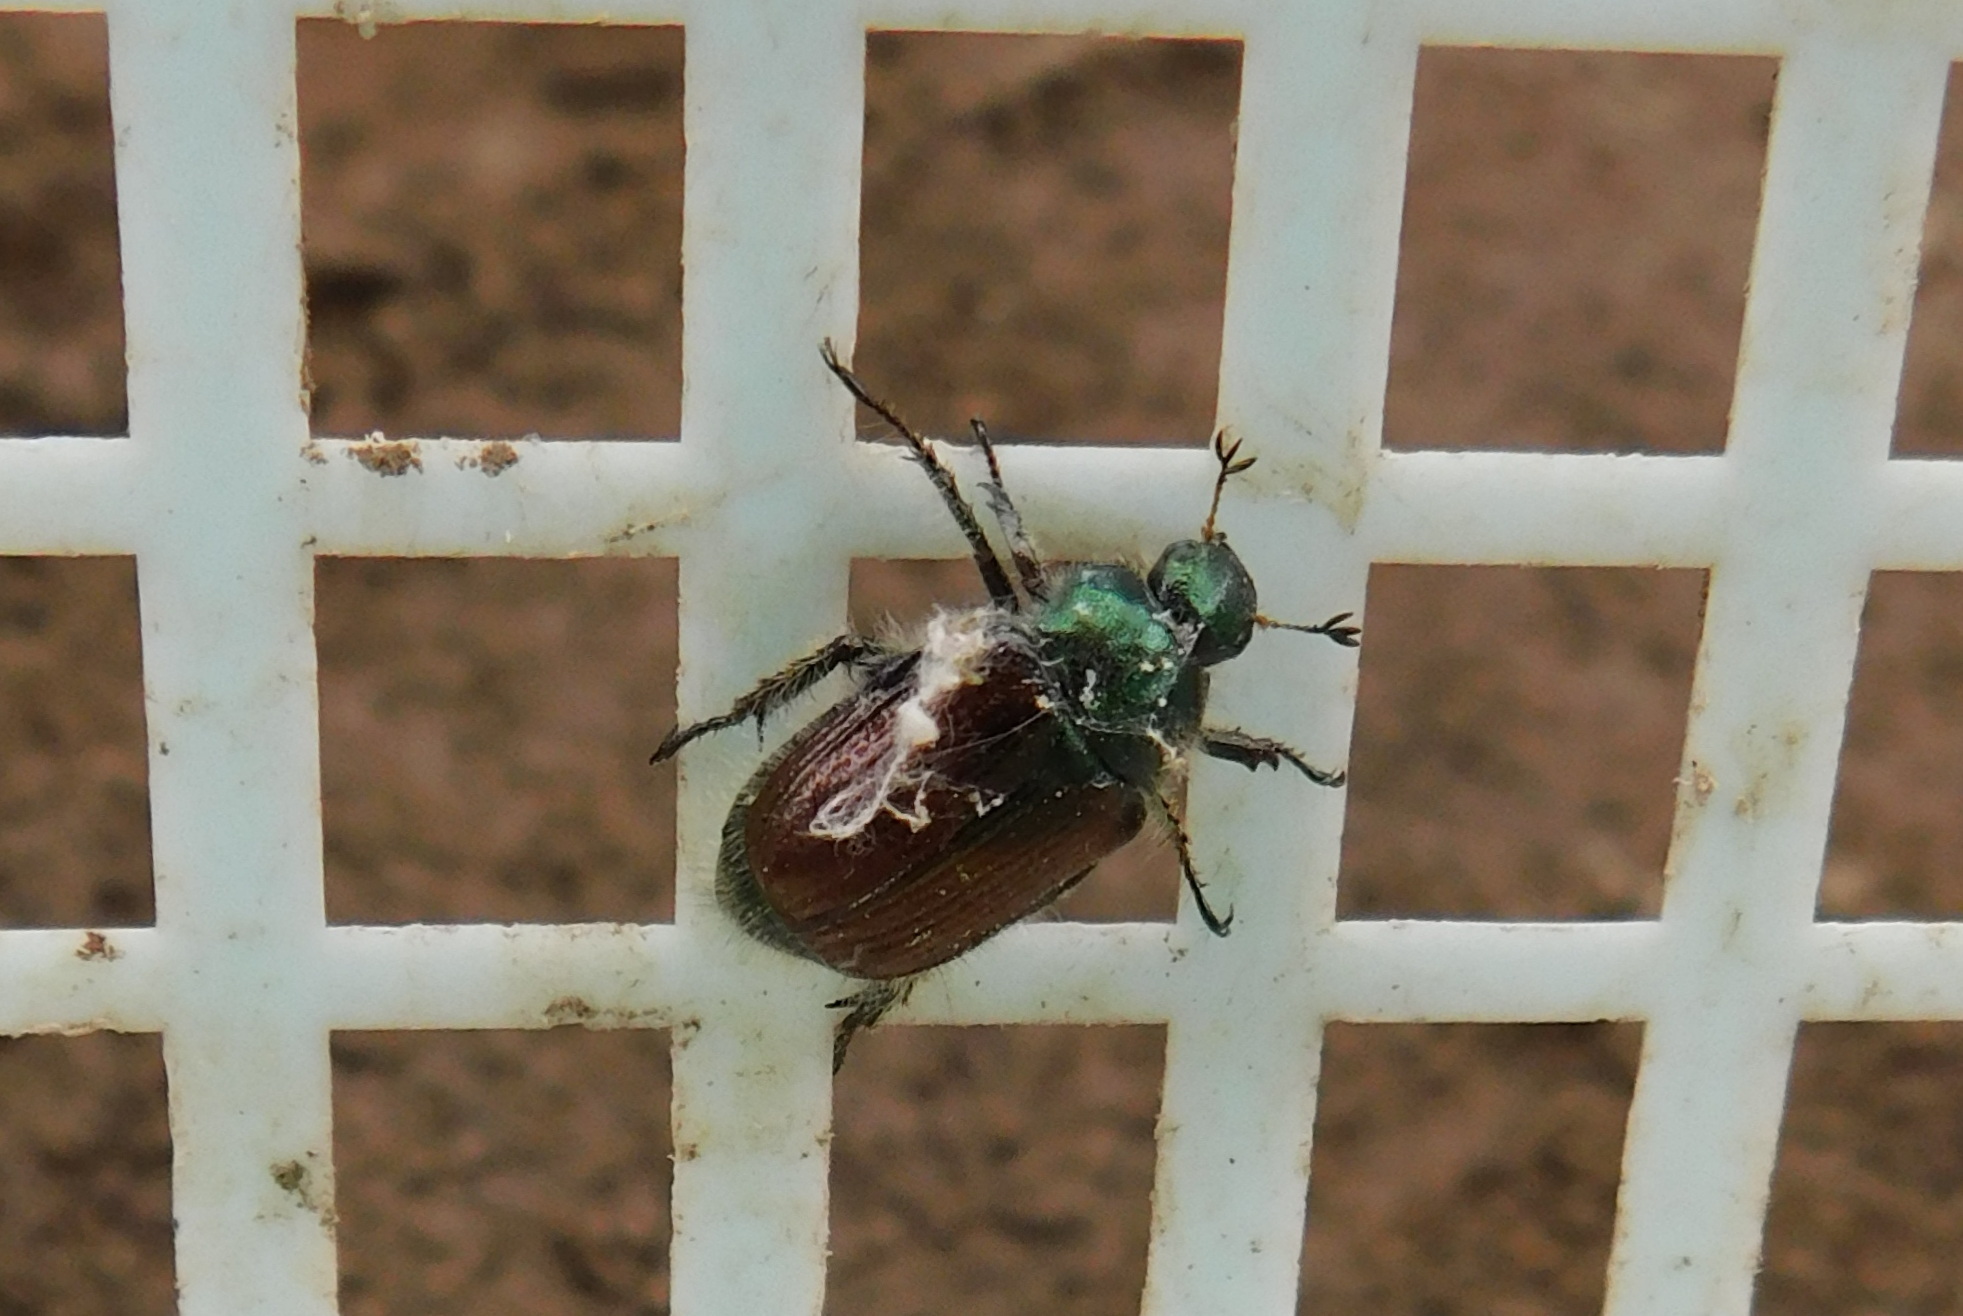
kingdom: Animalia
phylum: Arthropoda
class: Insecta
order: Coleoptera
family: Scarabaeidae
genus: Phyllopertha
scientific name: Phyllopertha horticola
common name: Garden chafer
